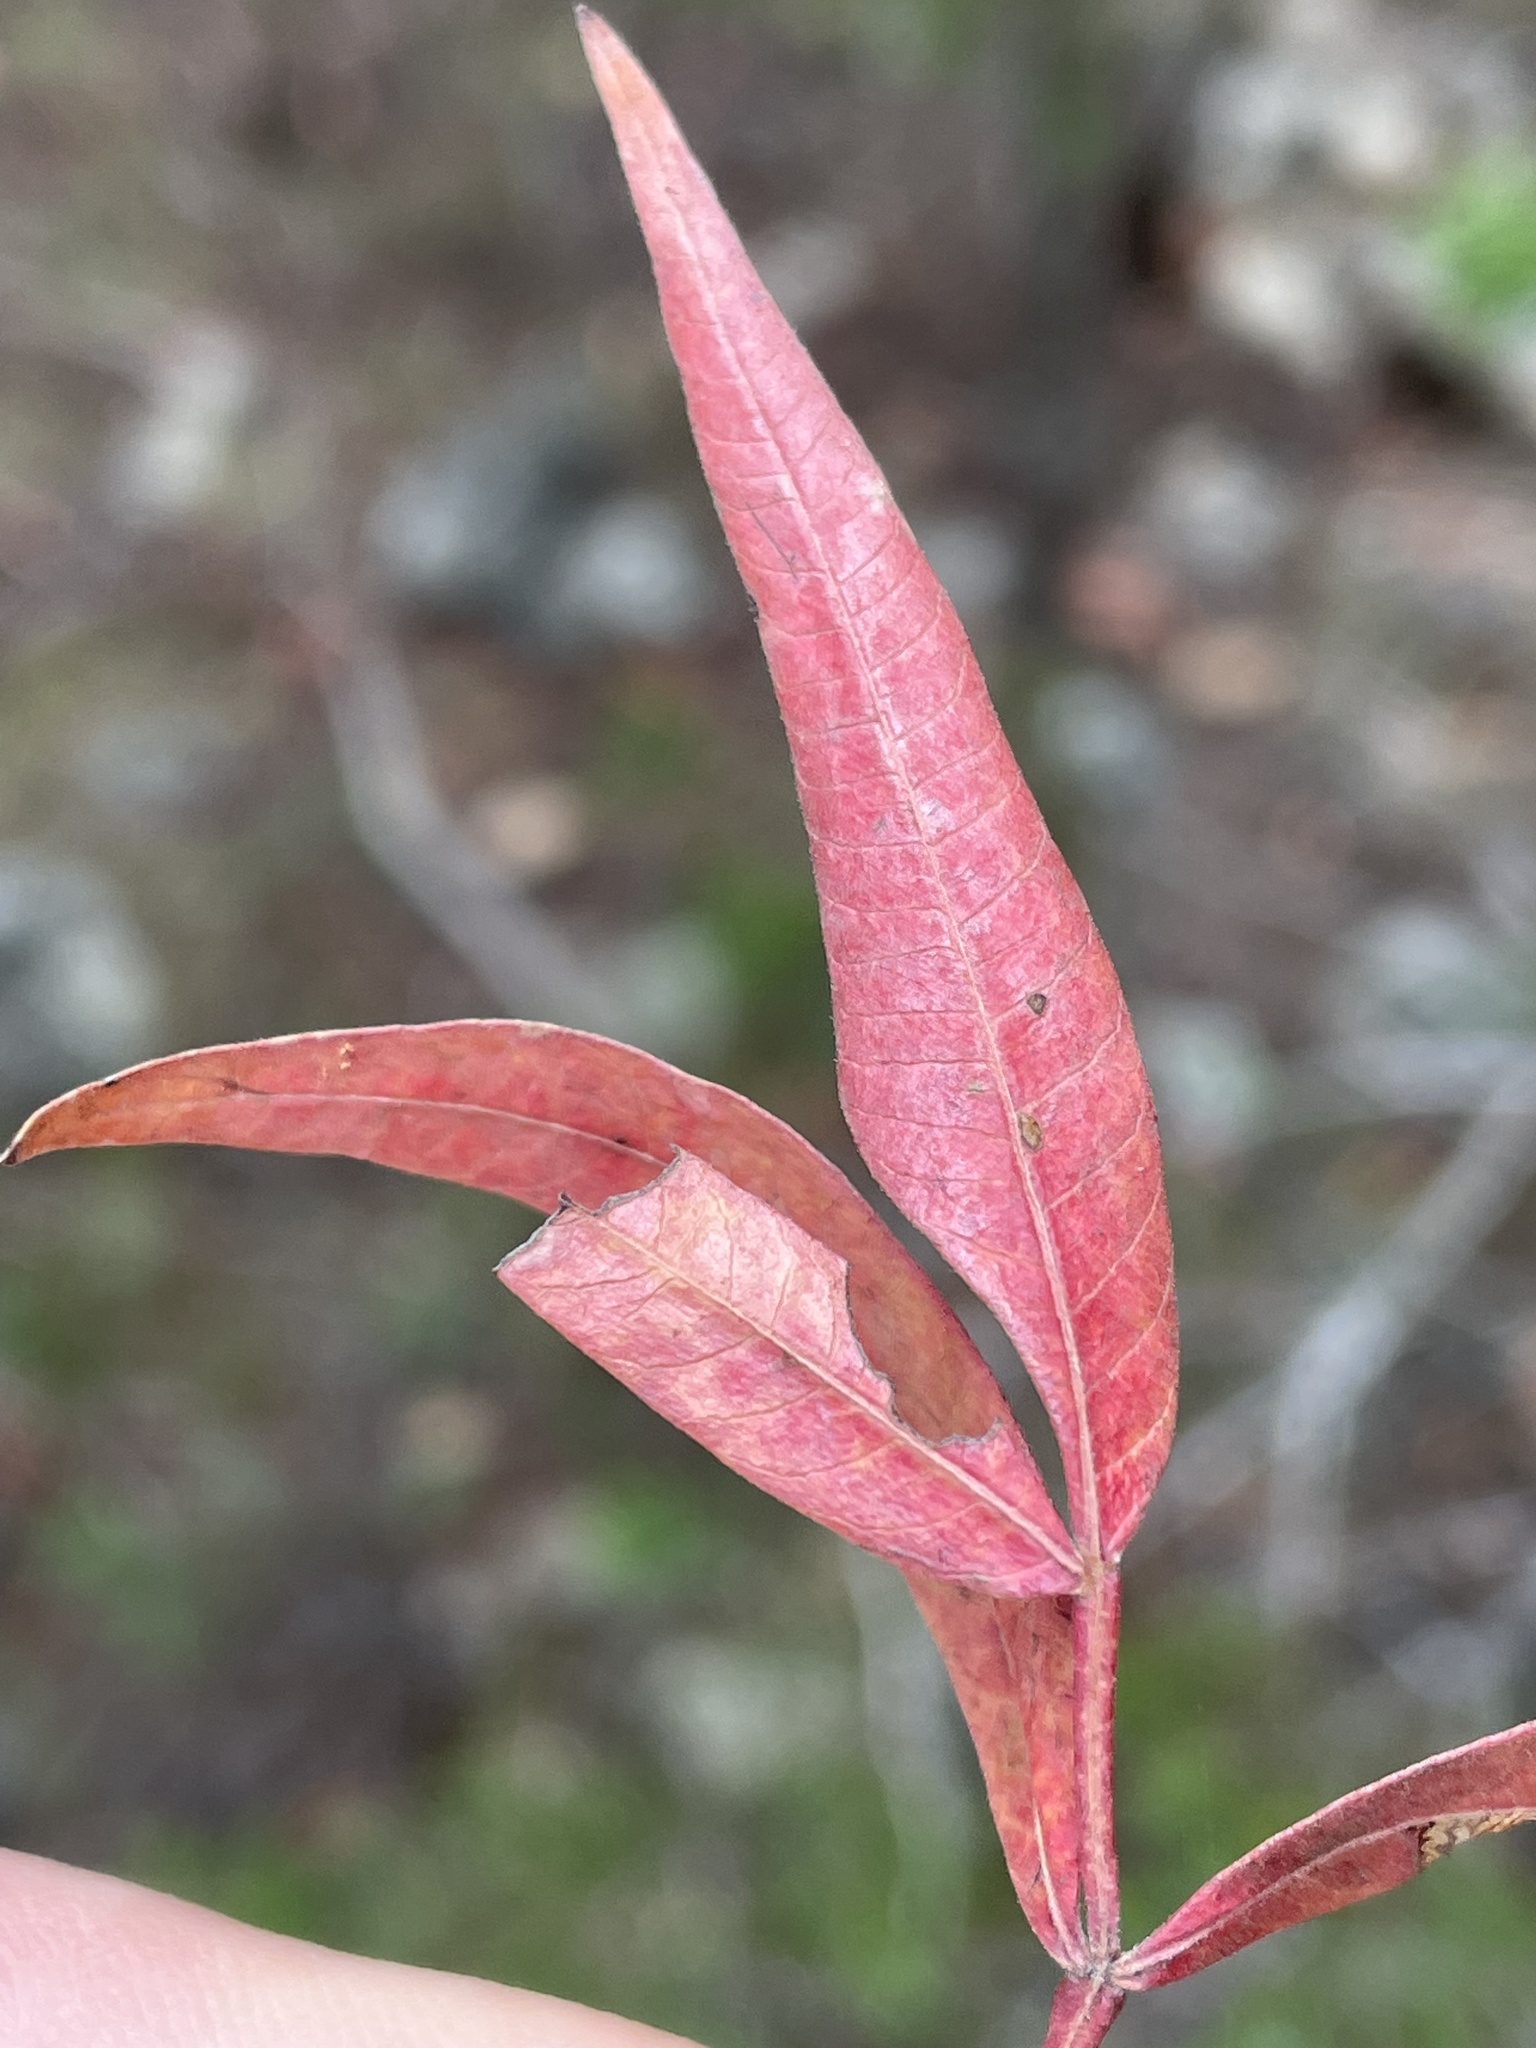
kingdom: Plantae
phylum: Tracheophyta
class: Magnoliopsida
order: Sapindales
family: Anacardiaceae
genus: Rhus
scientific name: Rhus lanceolata
